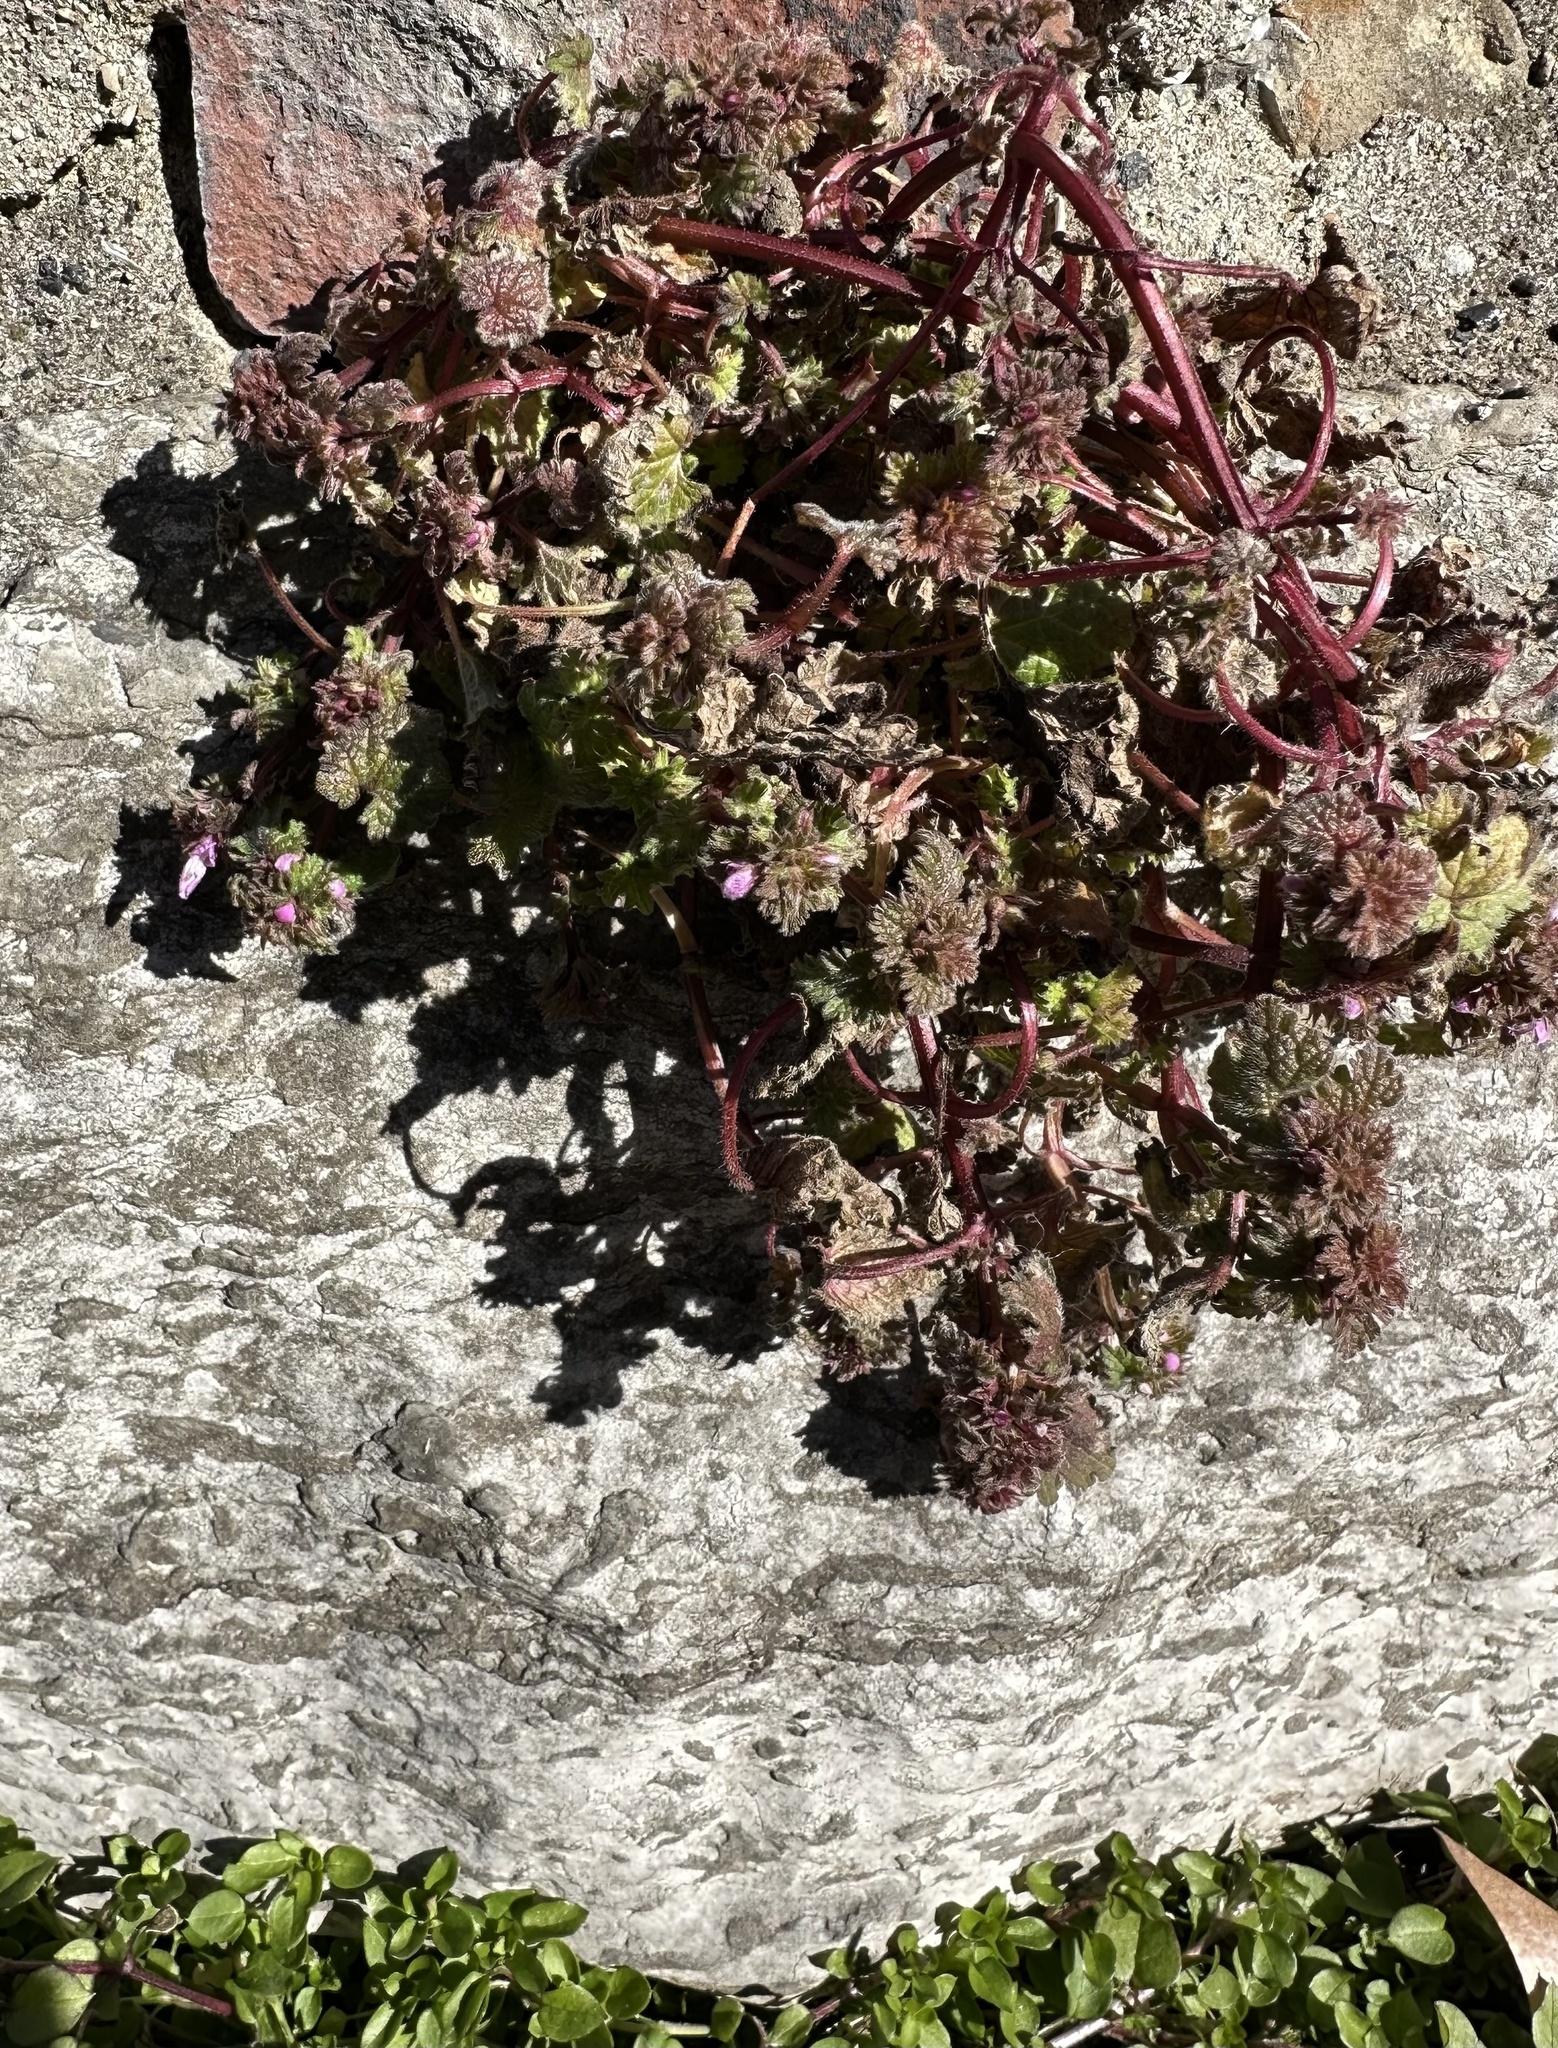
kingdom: Plantae
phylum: Tracheophyta
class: Magnoliopsida
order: Lamiales
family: Lamiaceae
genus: Lamium
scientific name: Lamium amplexicaule
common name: Henbit dead-nettle
